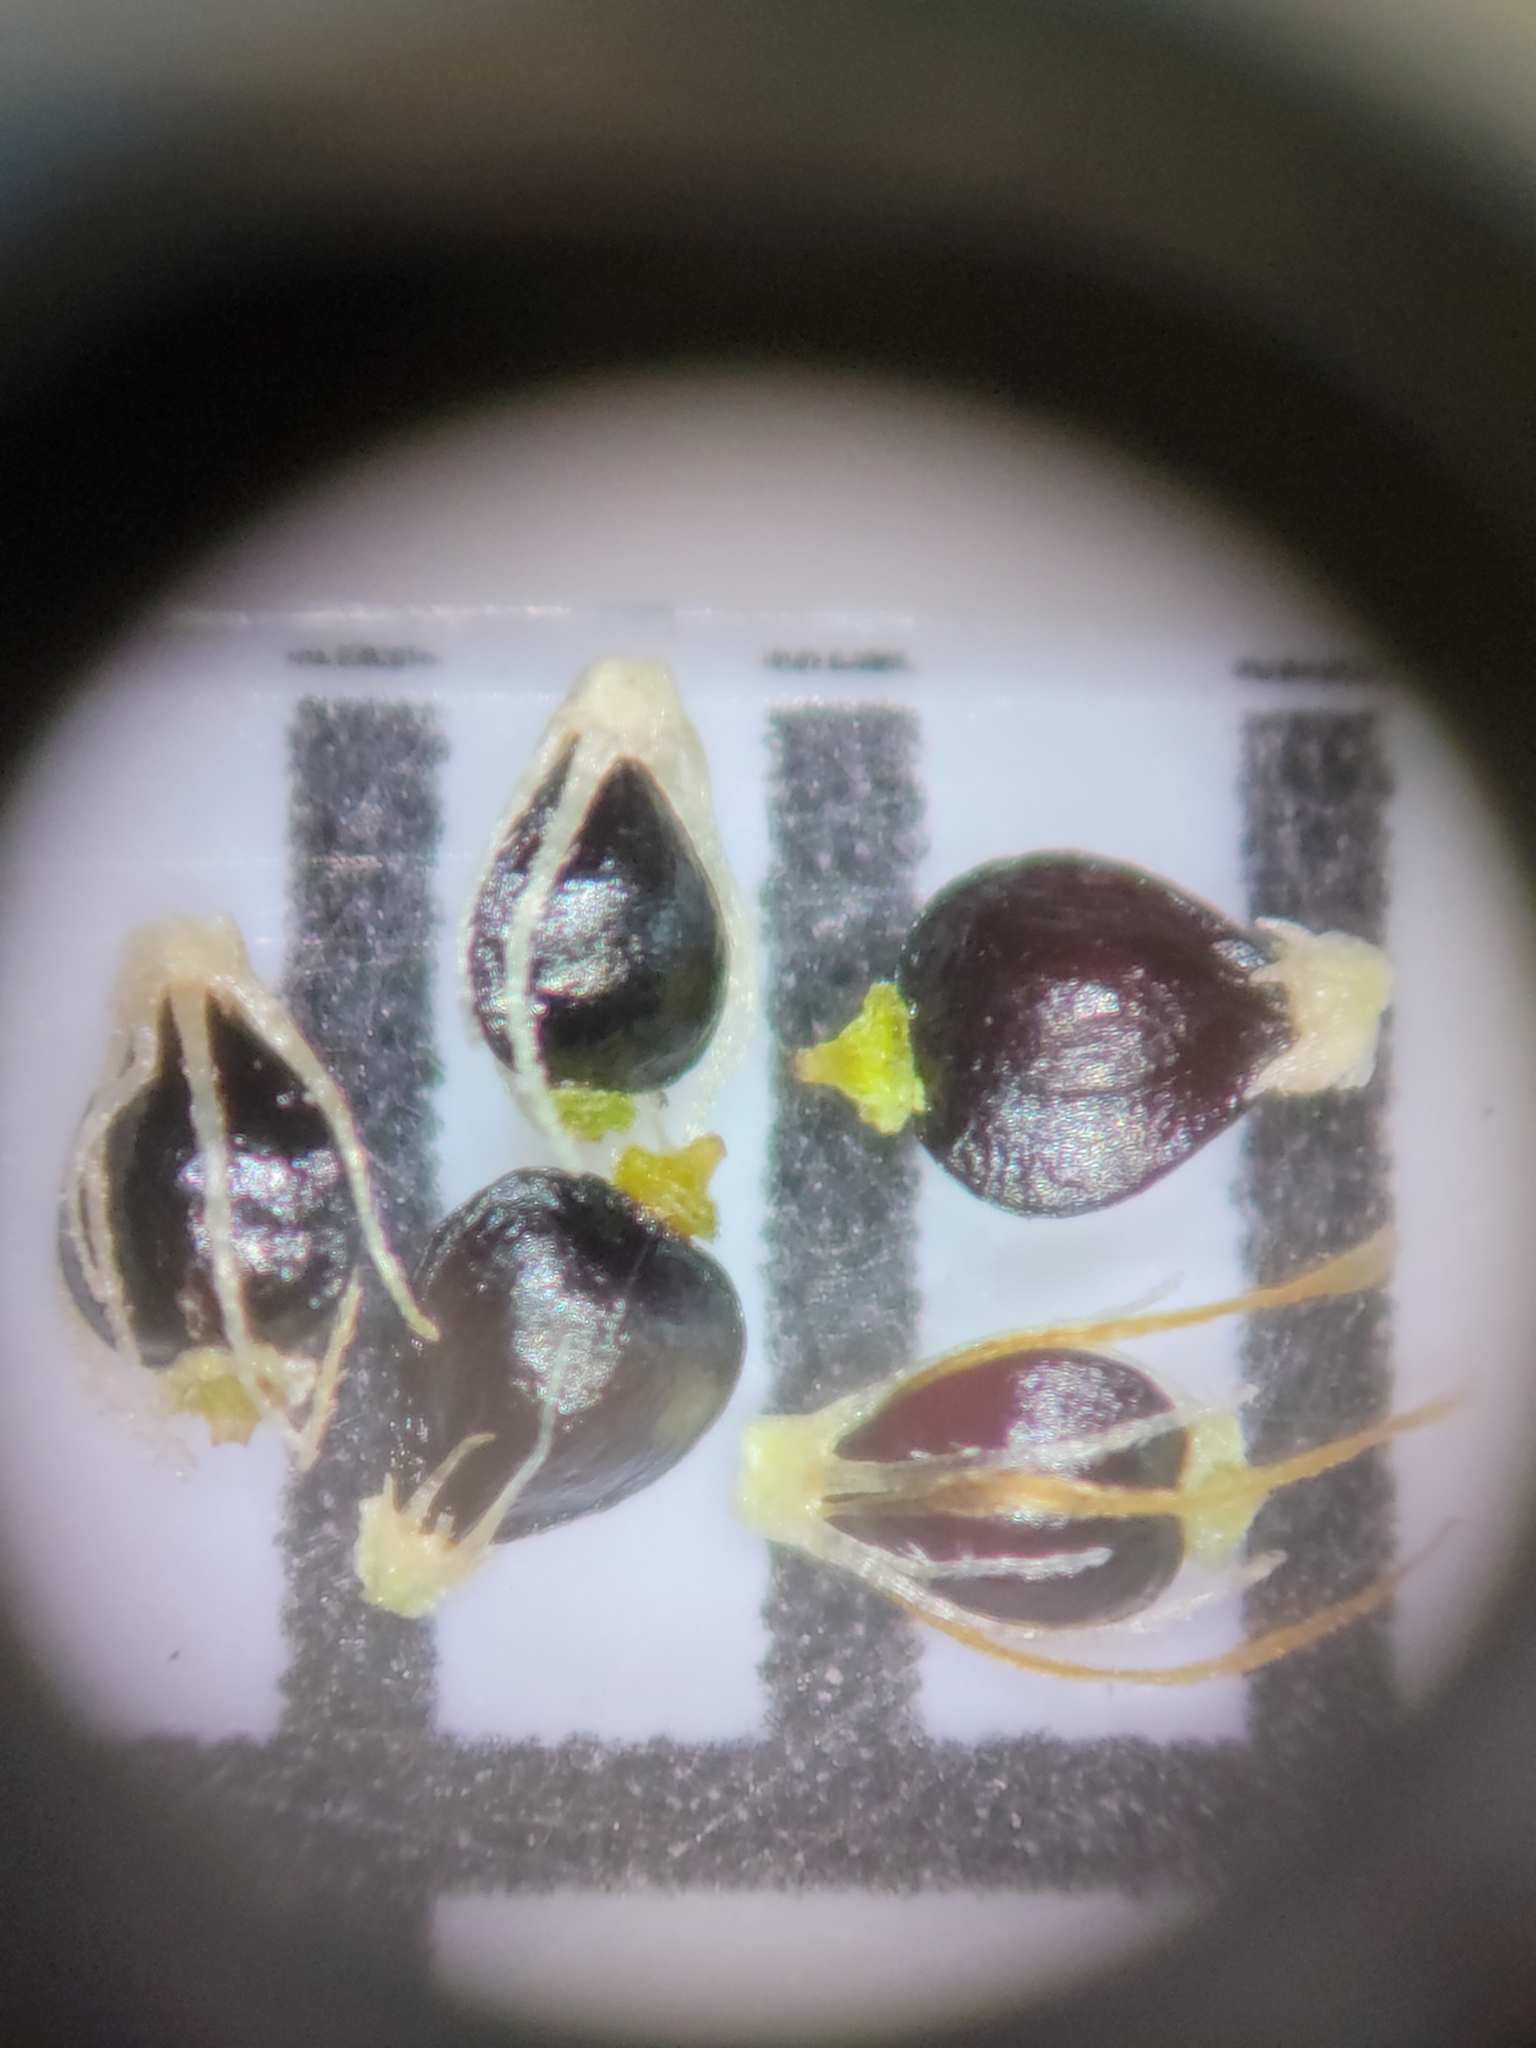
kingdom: Plantae
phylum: Tracheophyta
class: Liliopsida
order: Poales
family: Cyperaceae
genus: Eleocharis
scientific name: Eleocharis geniculata
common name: Canada spikesedge
